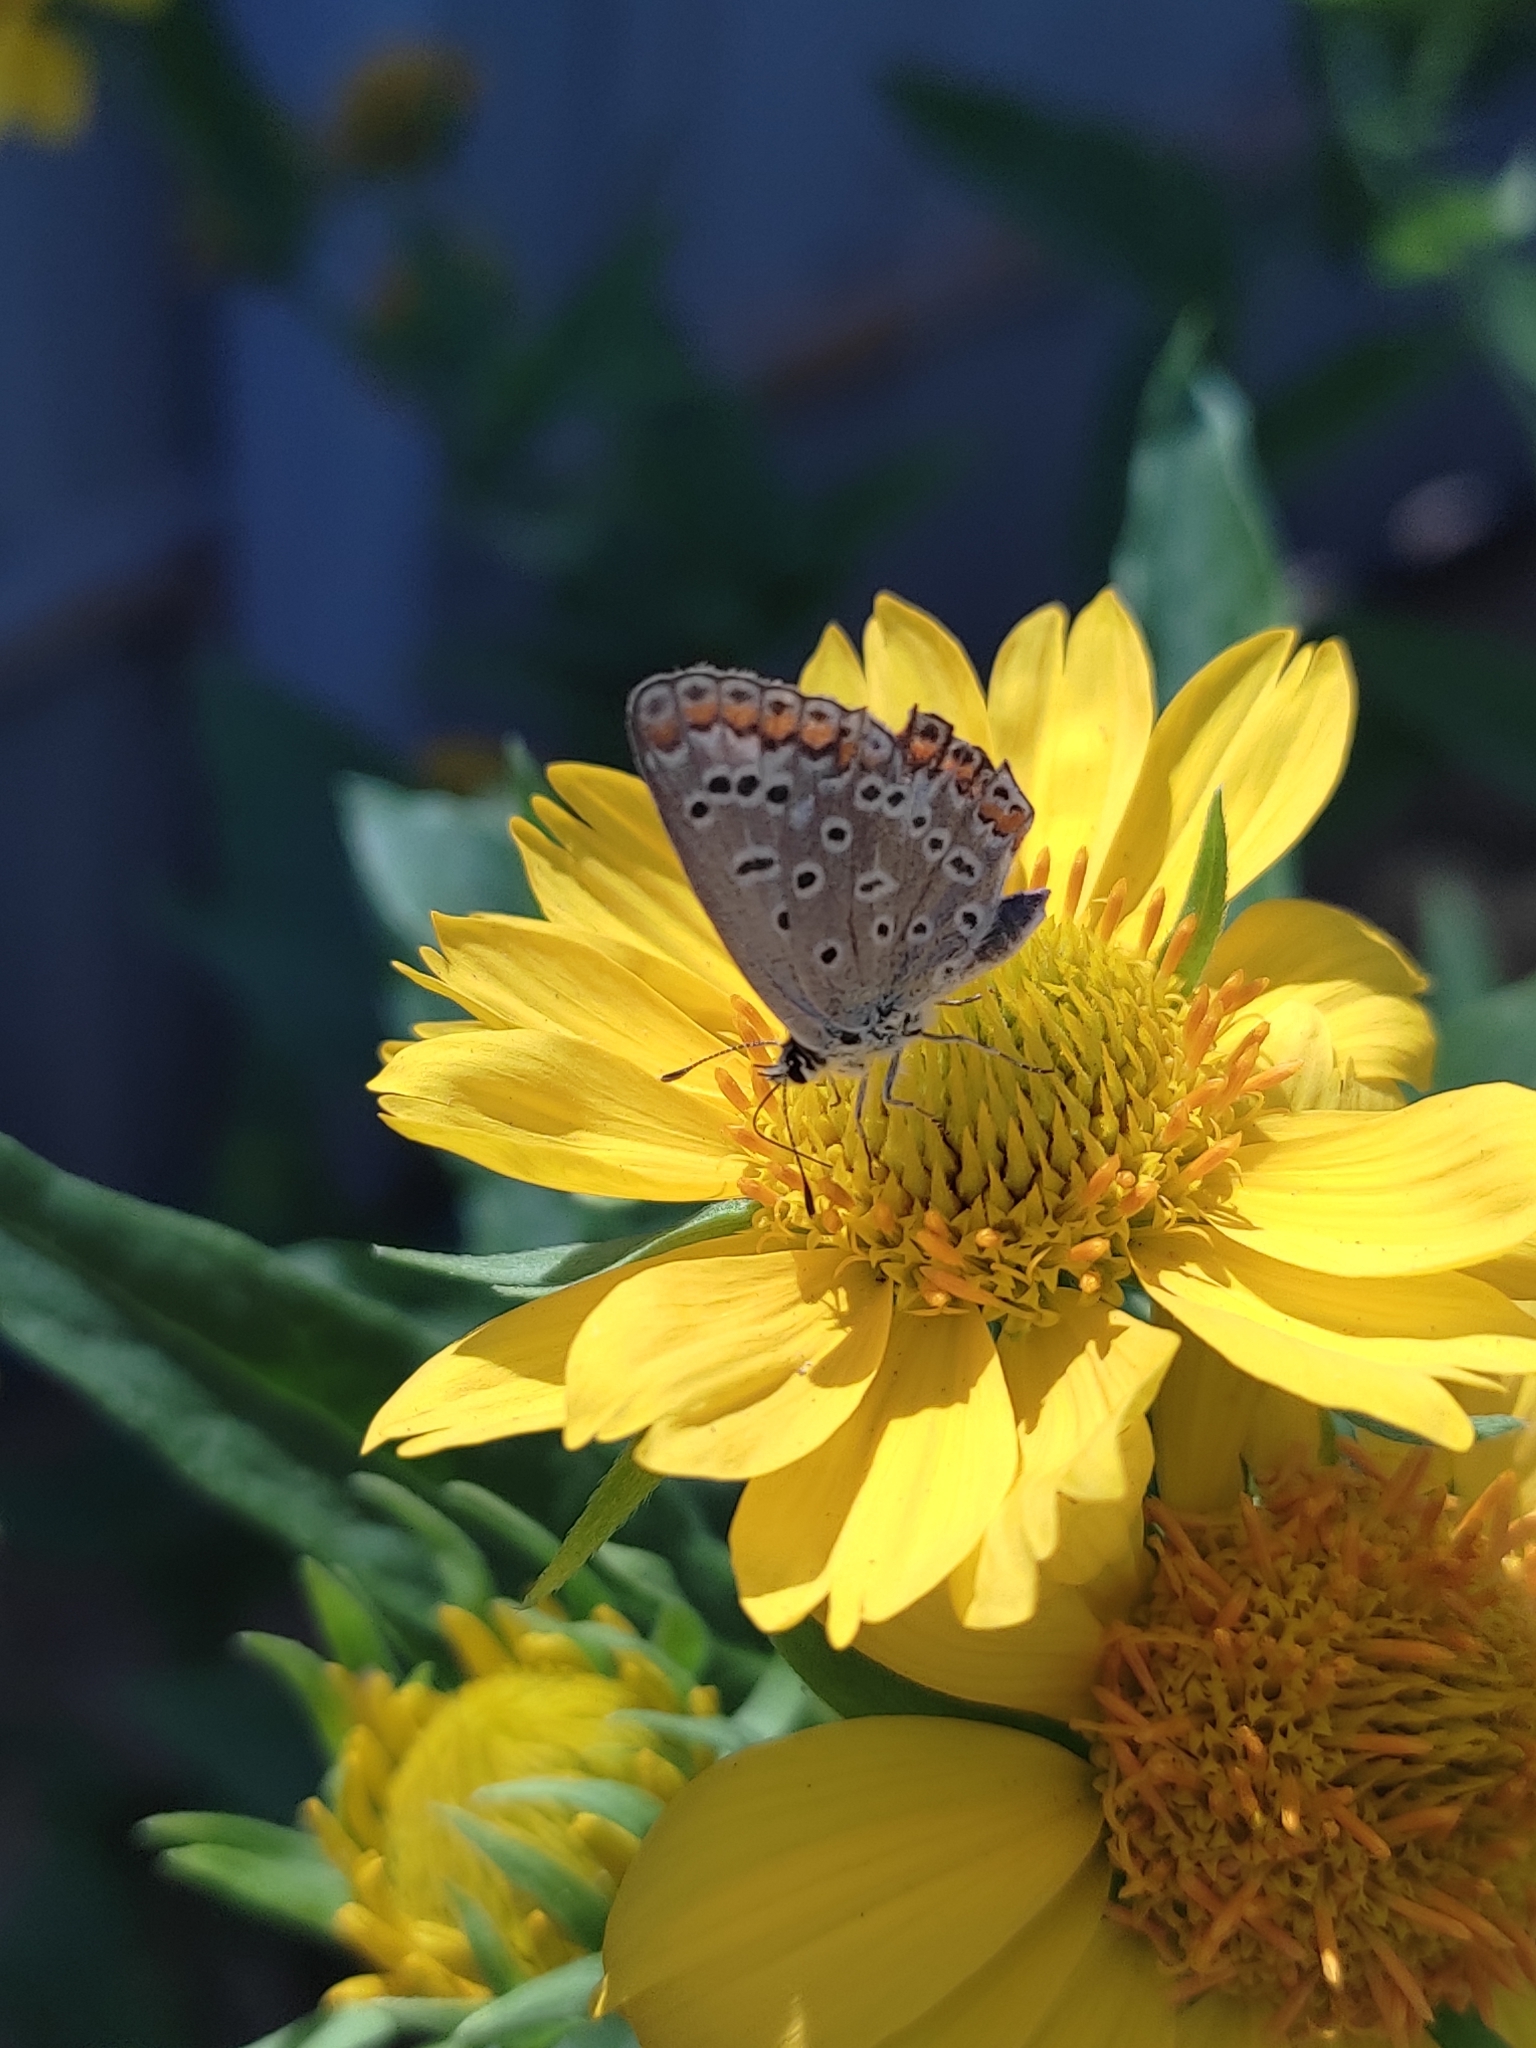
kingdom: Animalia
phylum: Arthropoda
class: Insecta
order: Lepidoptera
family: Lycaenidae
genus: Polyommatus
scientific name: Polyommatus icarus
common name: Common blue
